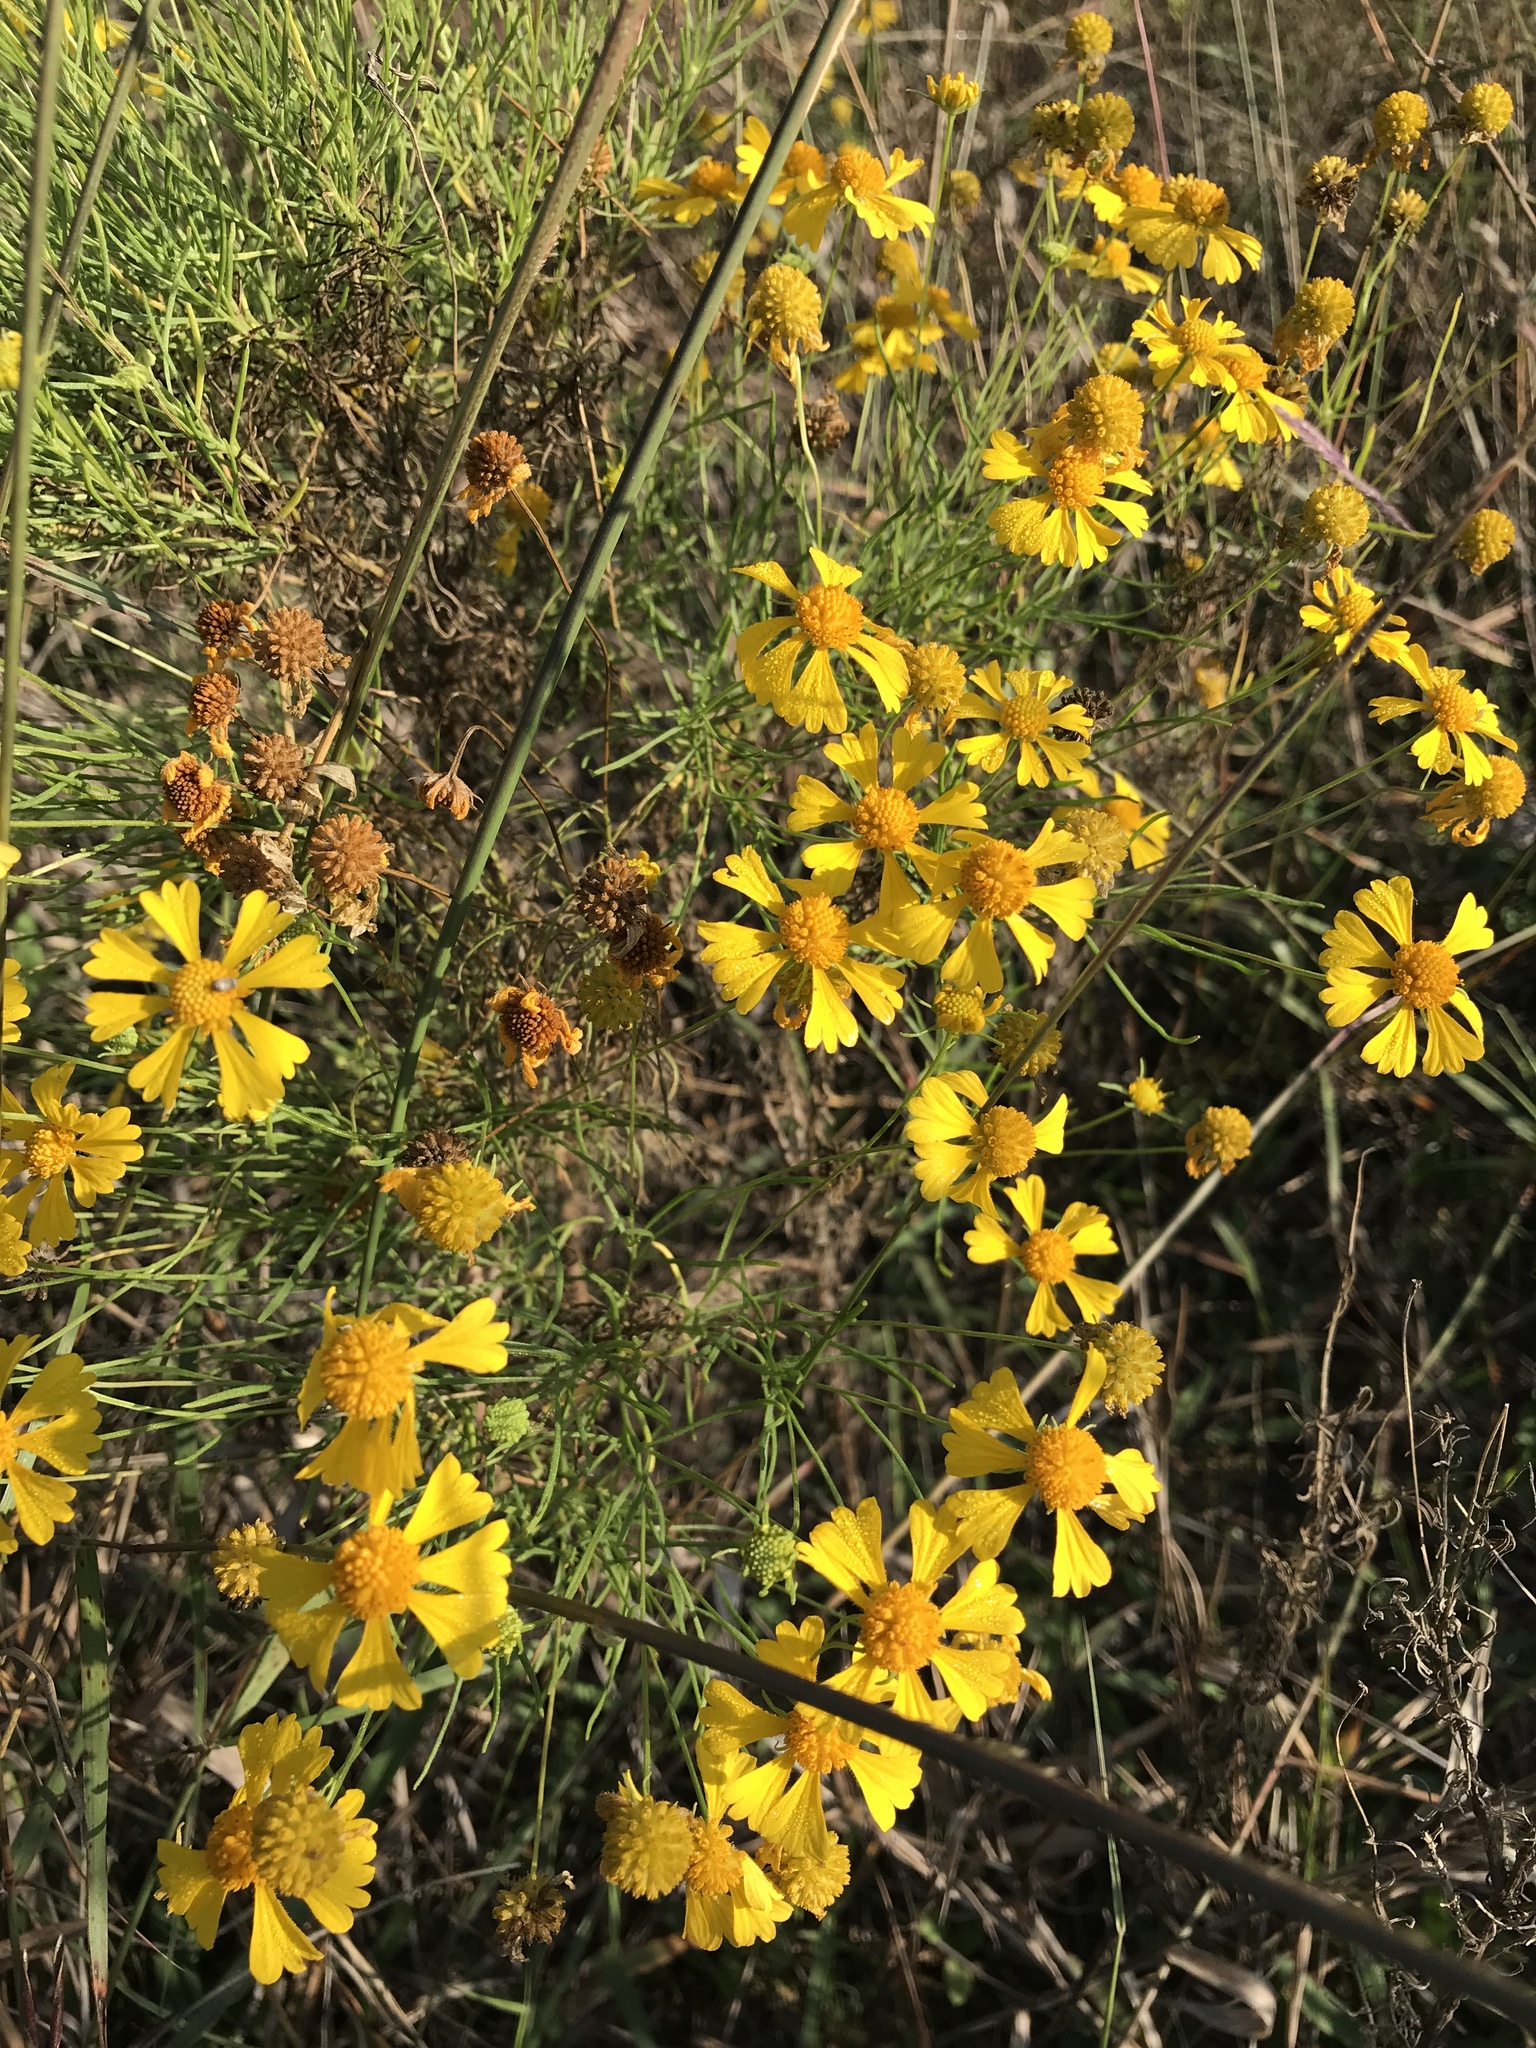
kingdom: Plantae
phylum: Tracheophyta
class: Magnoliopsida
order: Asterales
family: Asteraceae
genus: Helenium
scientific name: Helenium amarum
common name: Bitter sneezeweed
